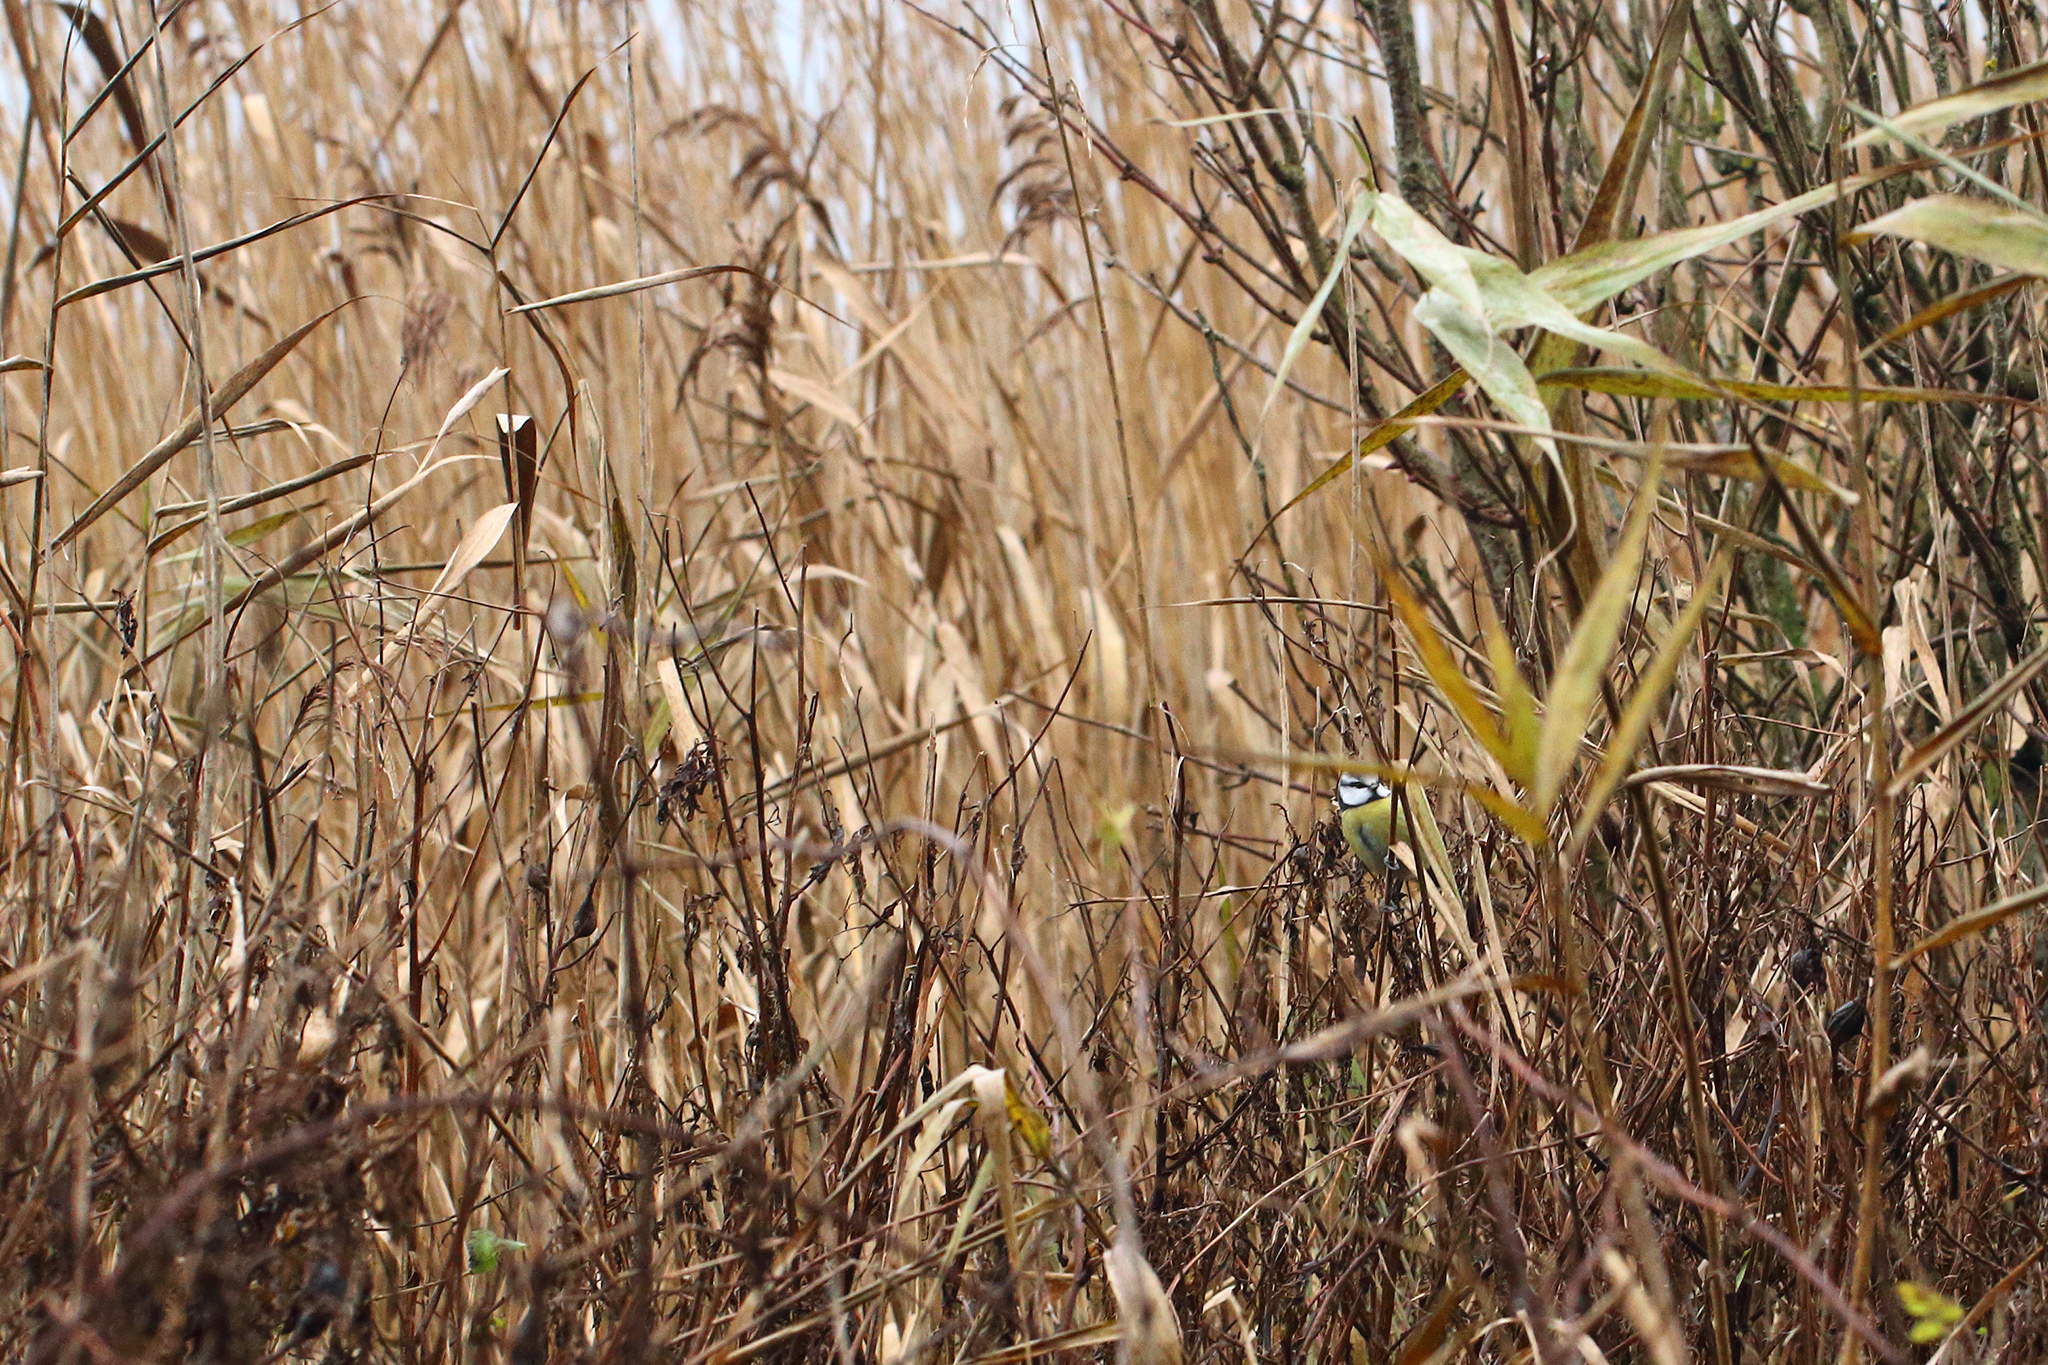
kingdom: Animalia
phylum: Chordata
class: Aves
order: Passeriformes
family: Paridae
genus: Cyanistes
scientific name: Cyanistes caeruleus
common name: Eurasian blue tit
